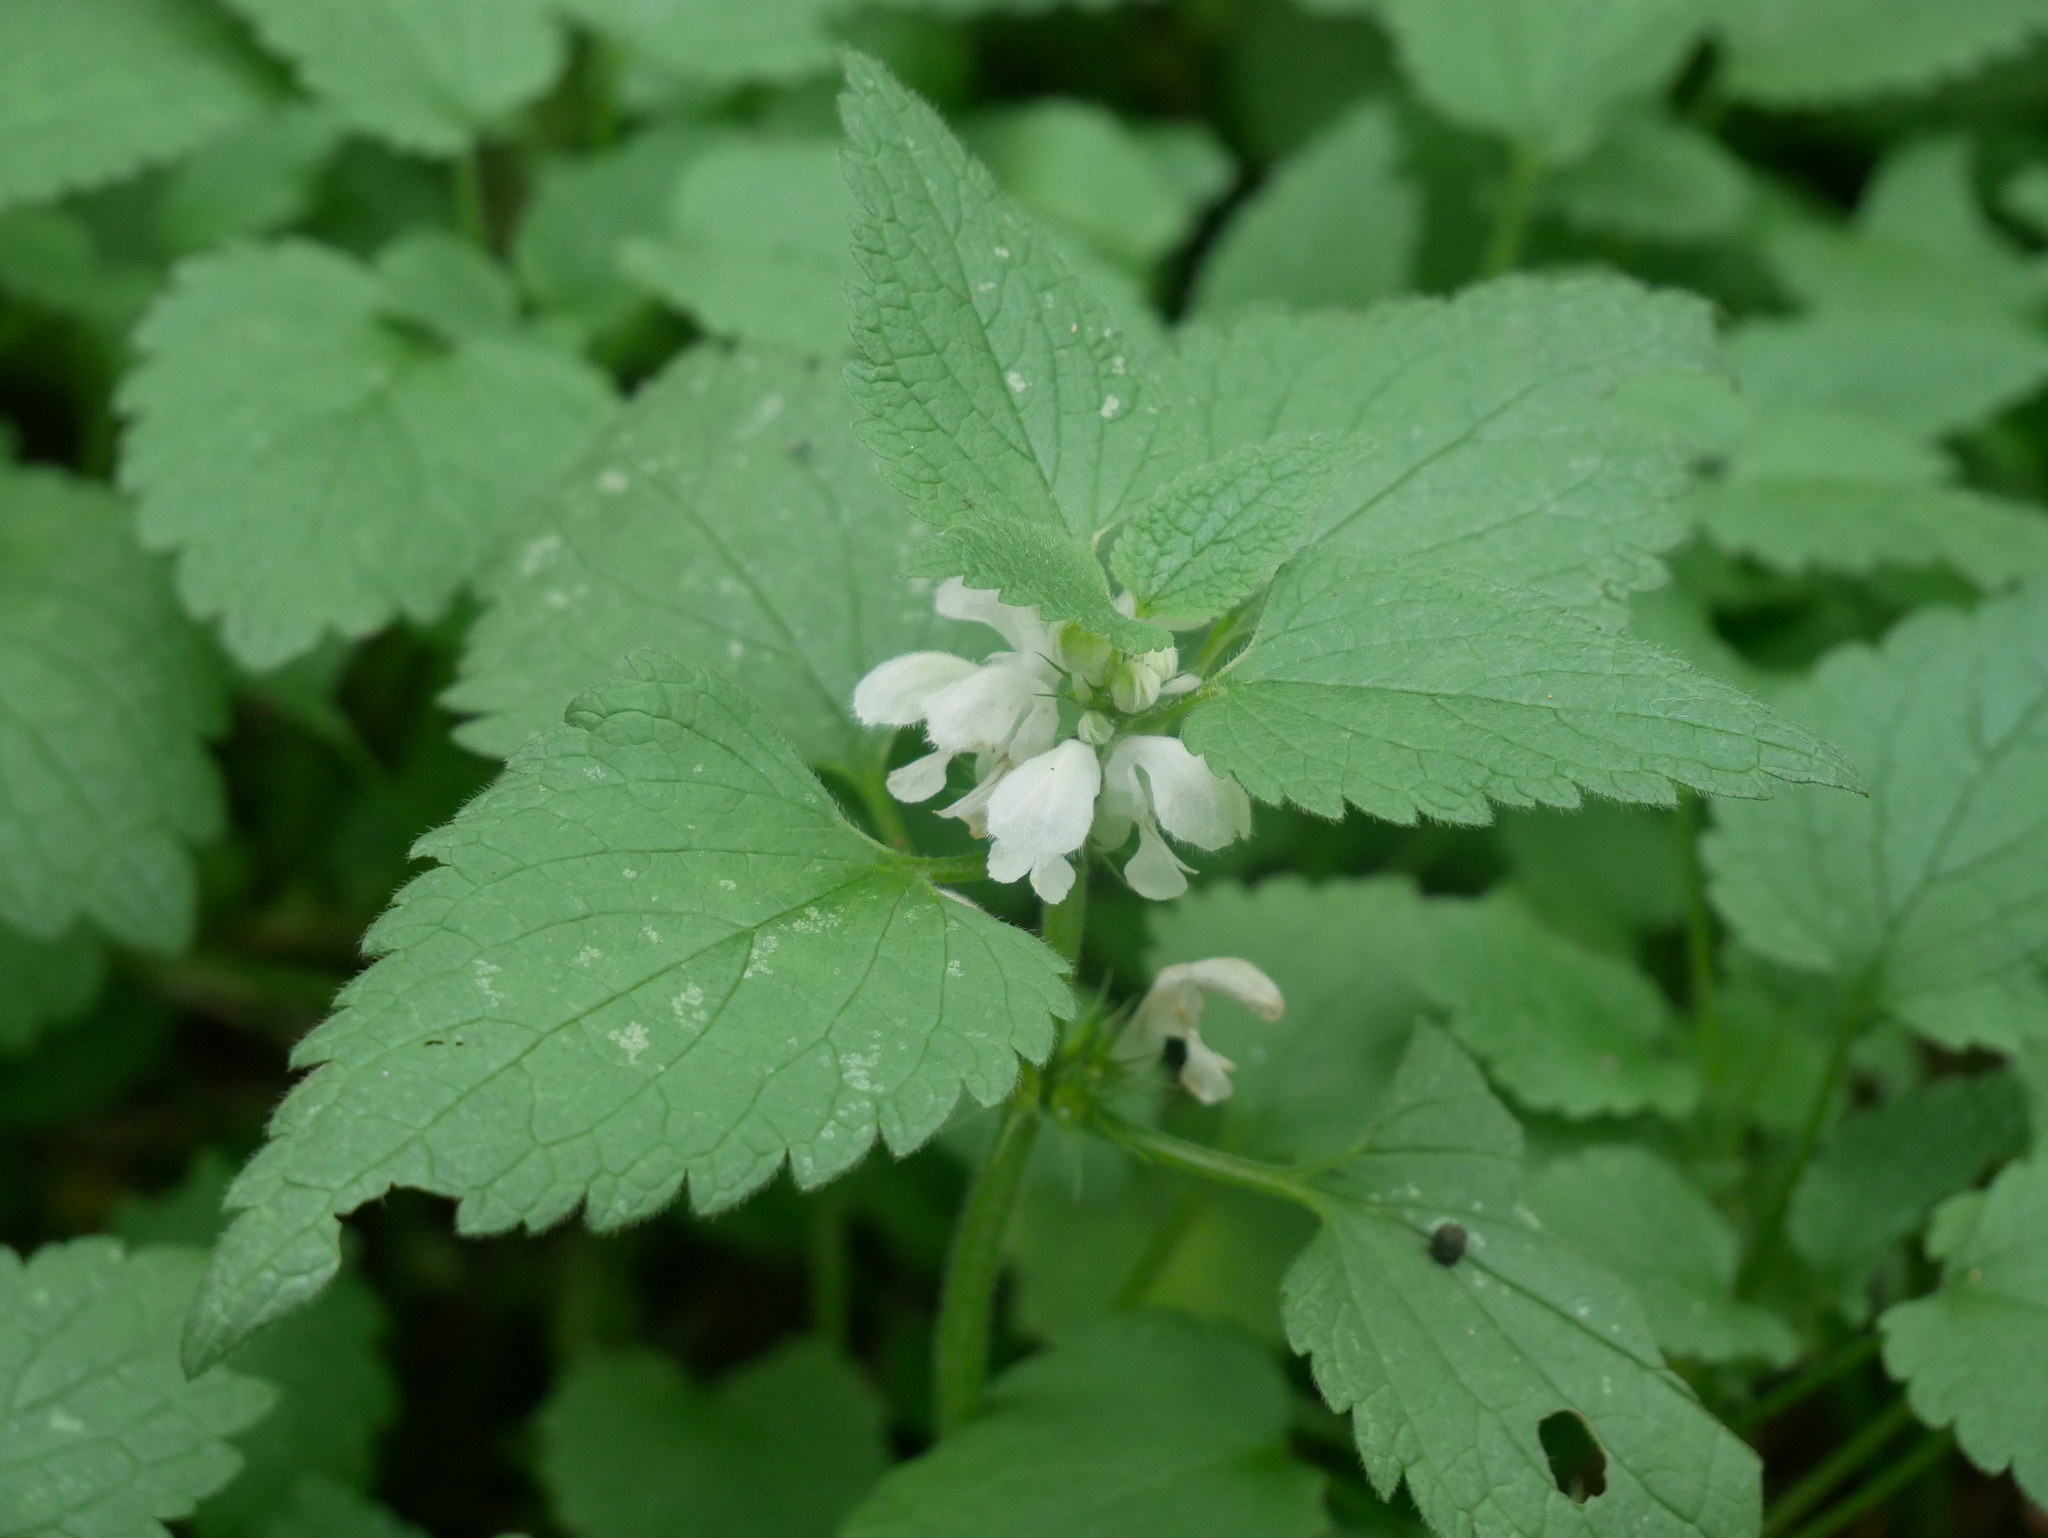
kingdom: Plantae
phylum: Tracheophyta
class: Magnoliopsida
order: Lamiales
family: Lamiaceae
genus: Lamium
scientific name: Lamium album
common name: White dead-nettle
